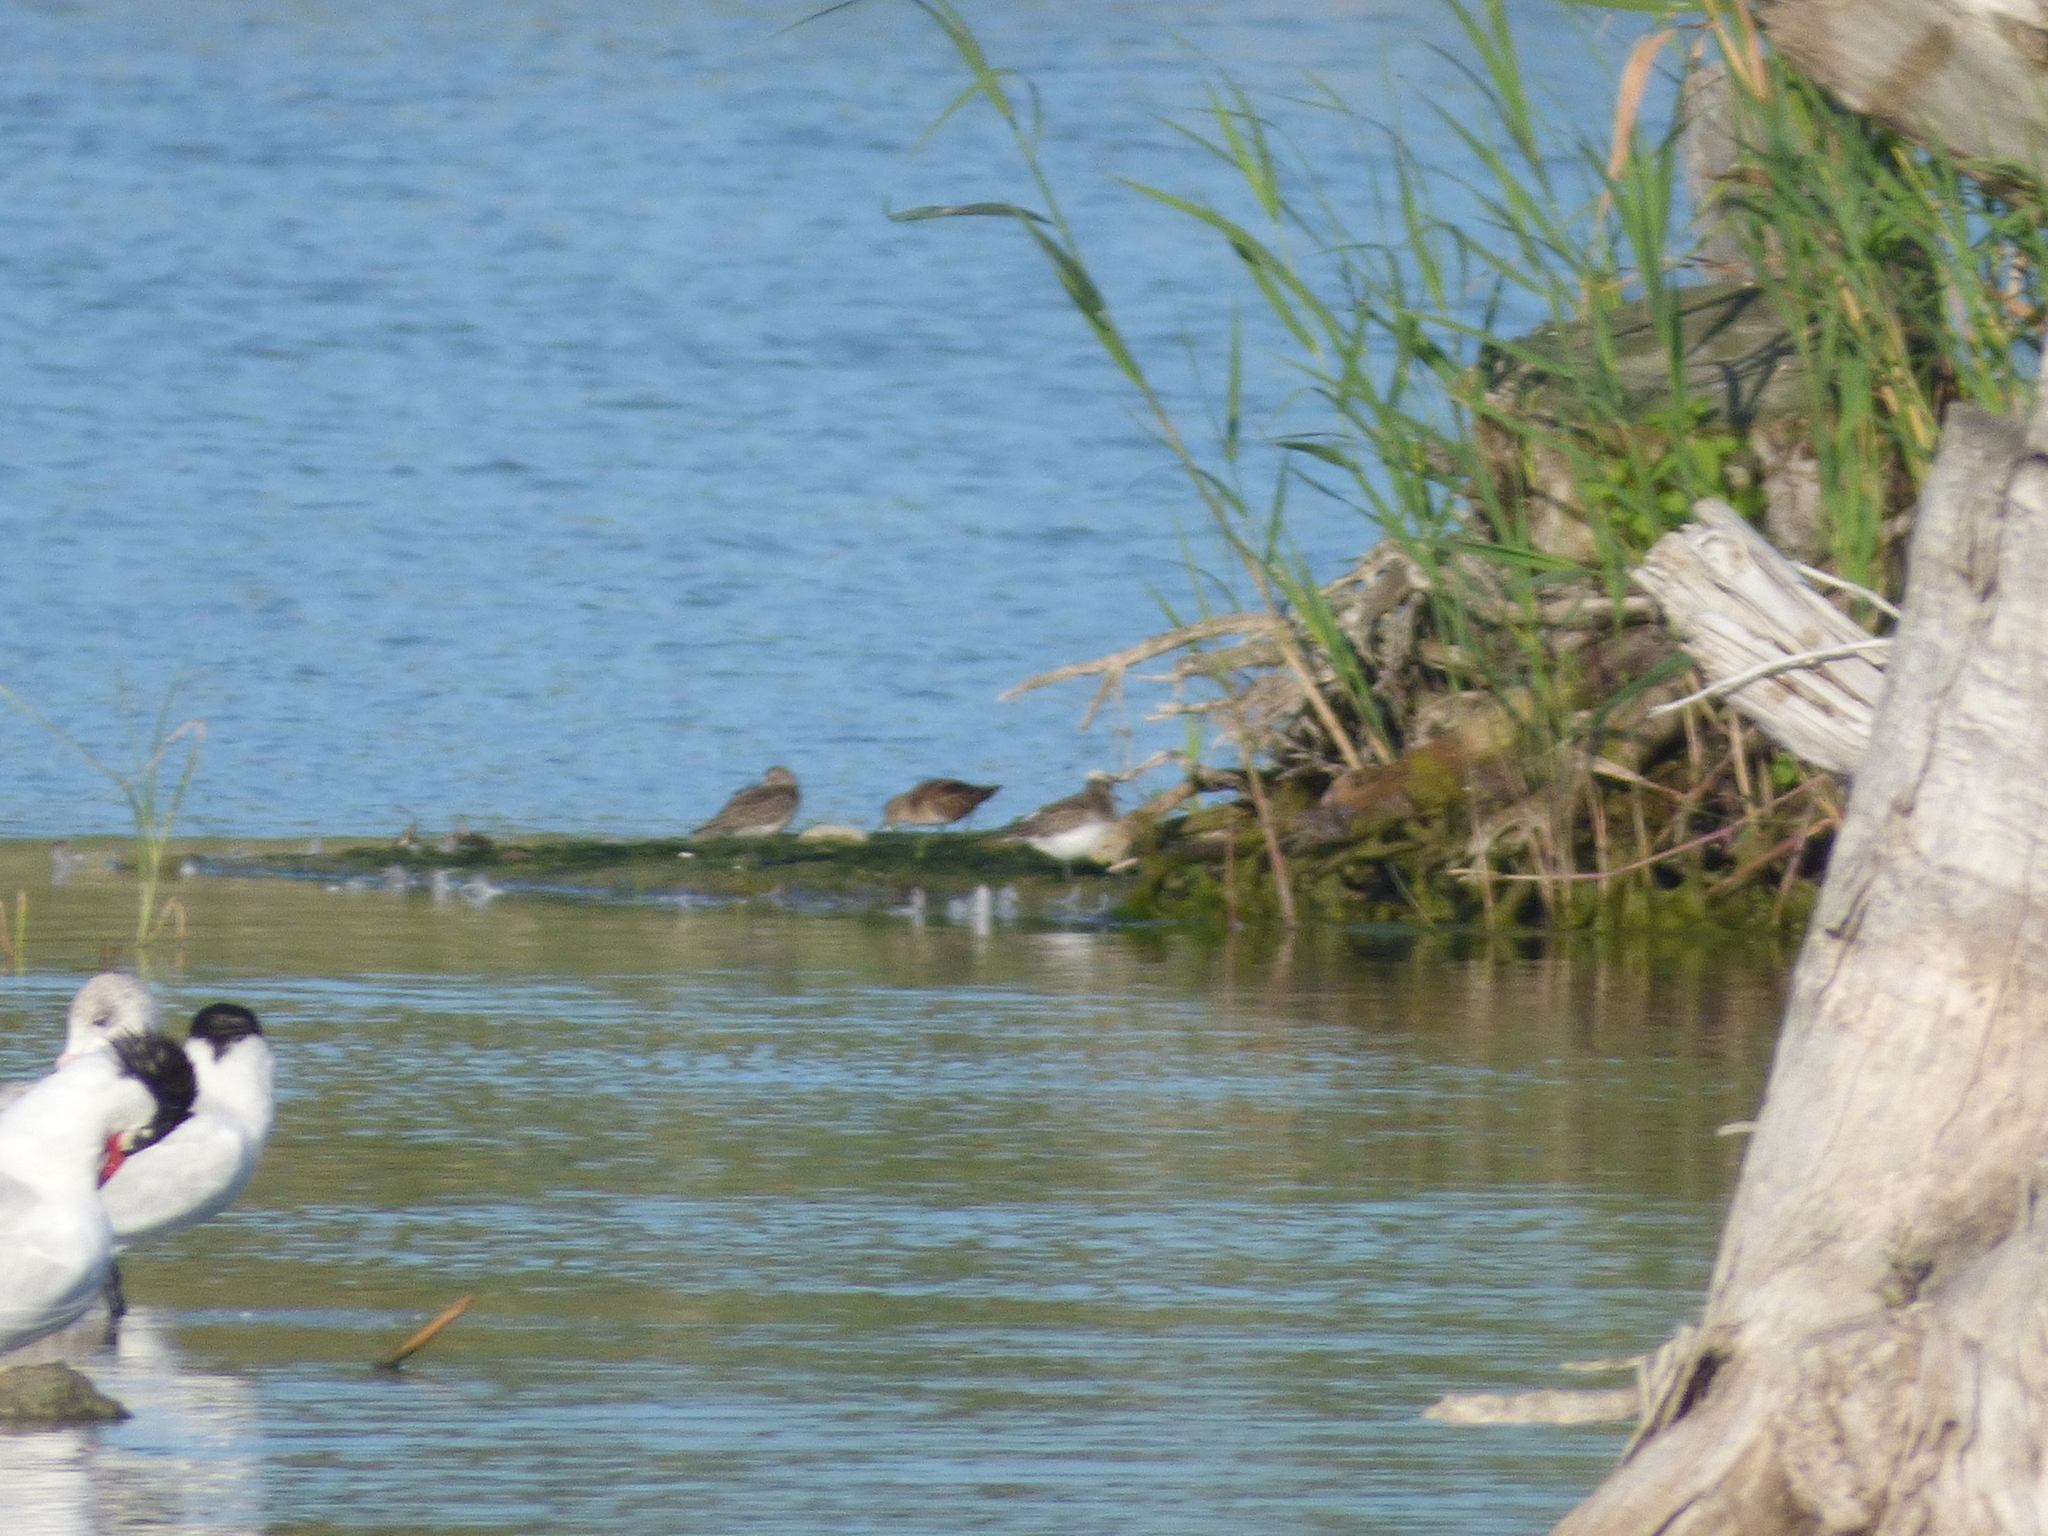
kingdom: Animalia
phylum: Chordata
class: Aves
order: Charadriiformes
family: Scolopacidae
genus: Calidris
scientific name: Calidris minutilla
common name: Least sandpiper
